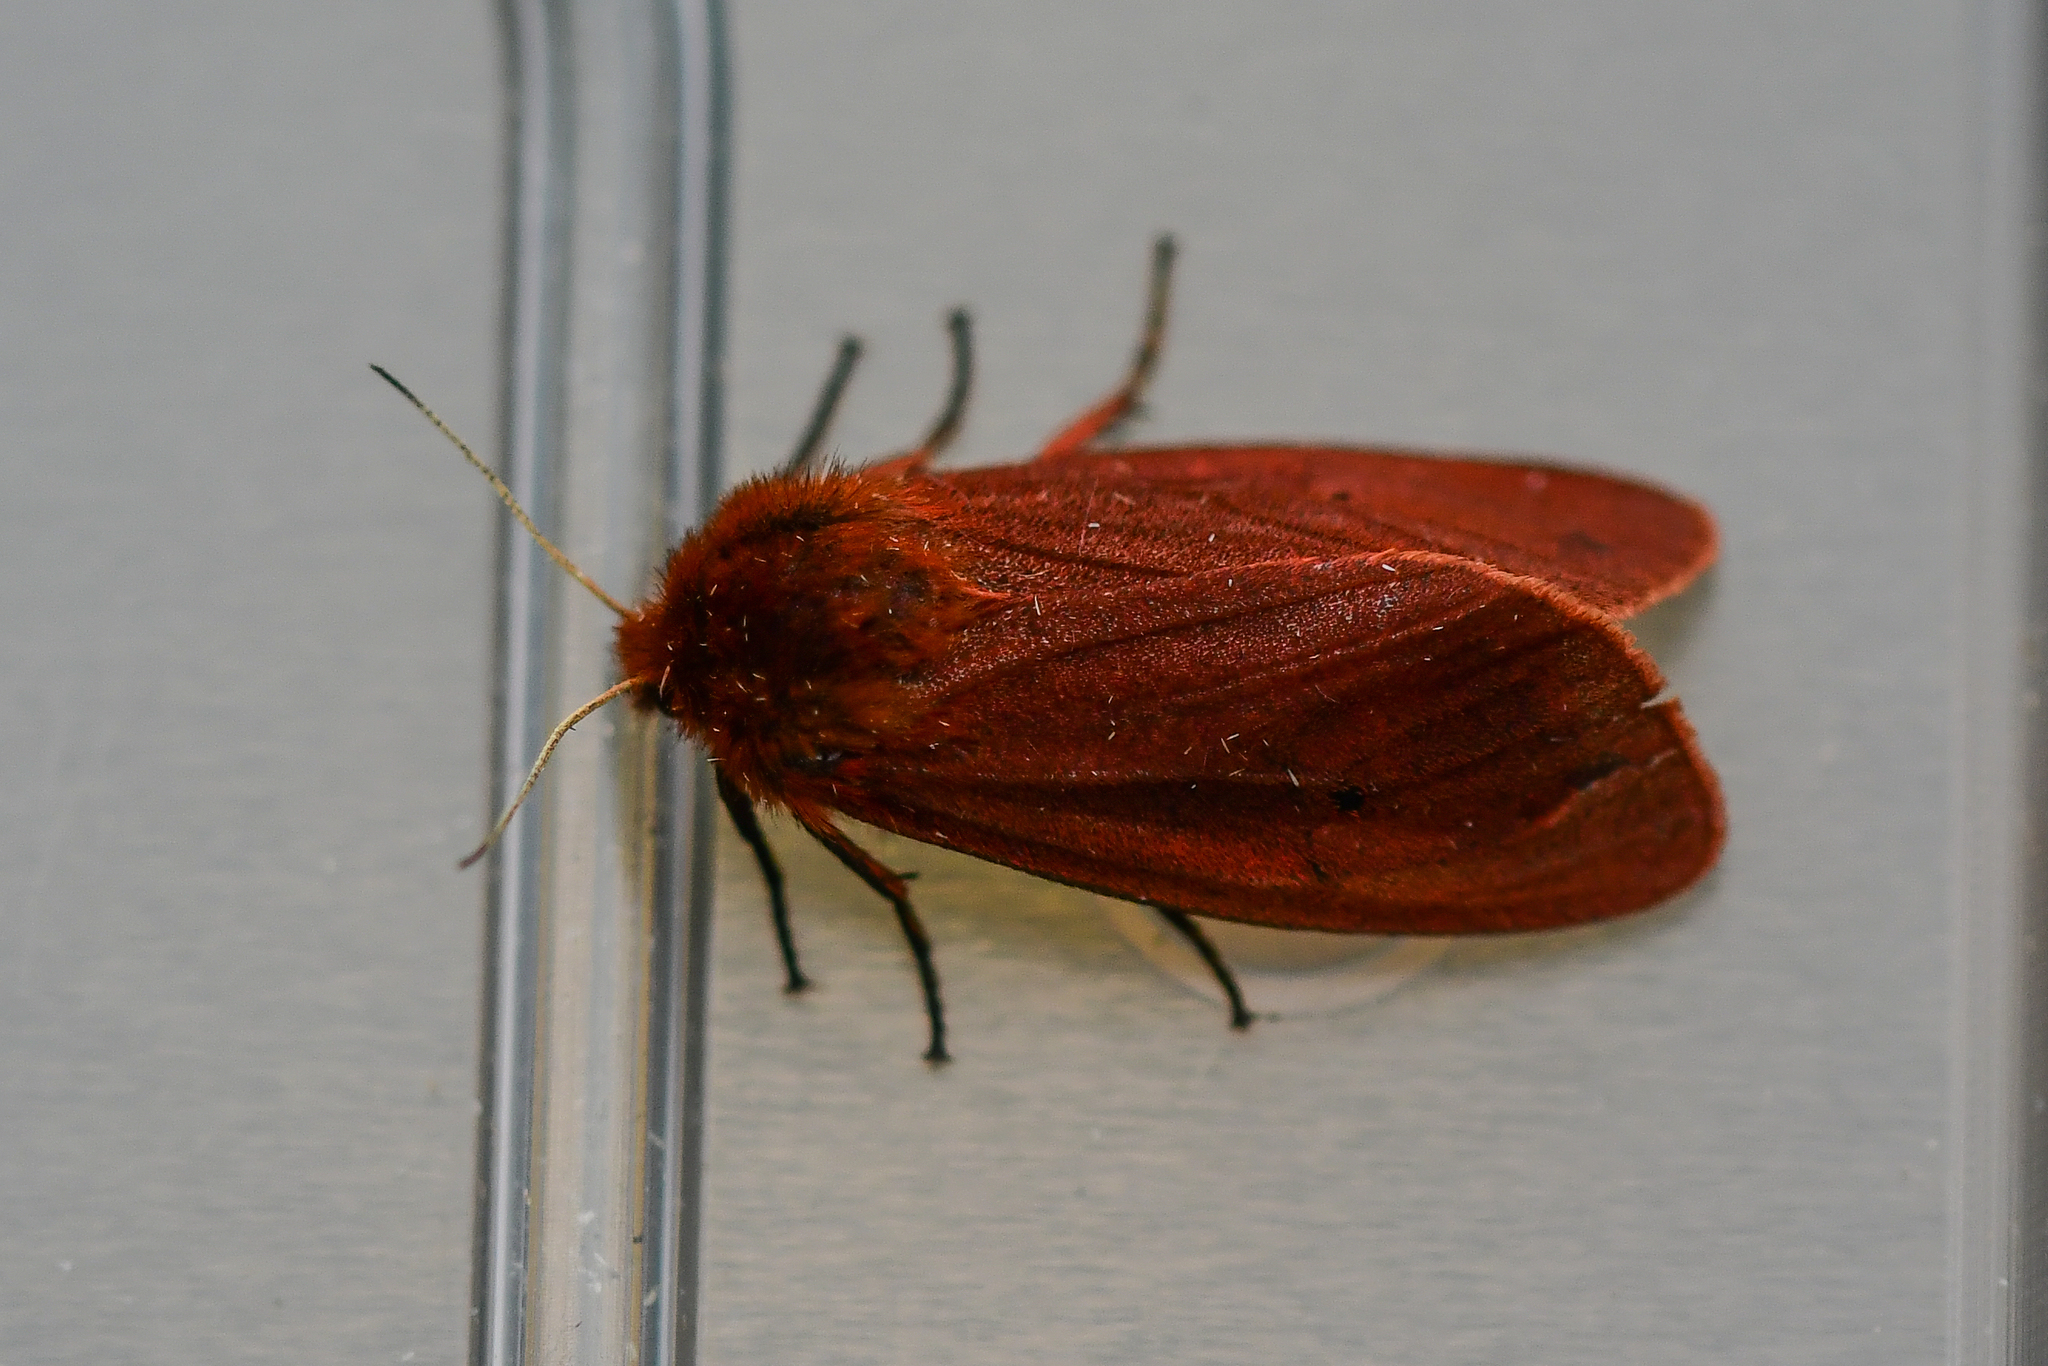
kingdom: Animalia
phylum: Arthropoda
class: Insecta
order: Lepidoptera
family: Erebidae
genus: Phragmatobia
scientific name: Phragmatobia fuliginosa
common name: Ruby tiger
